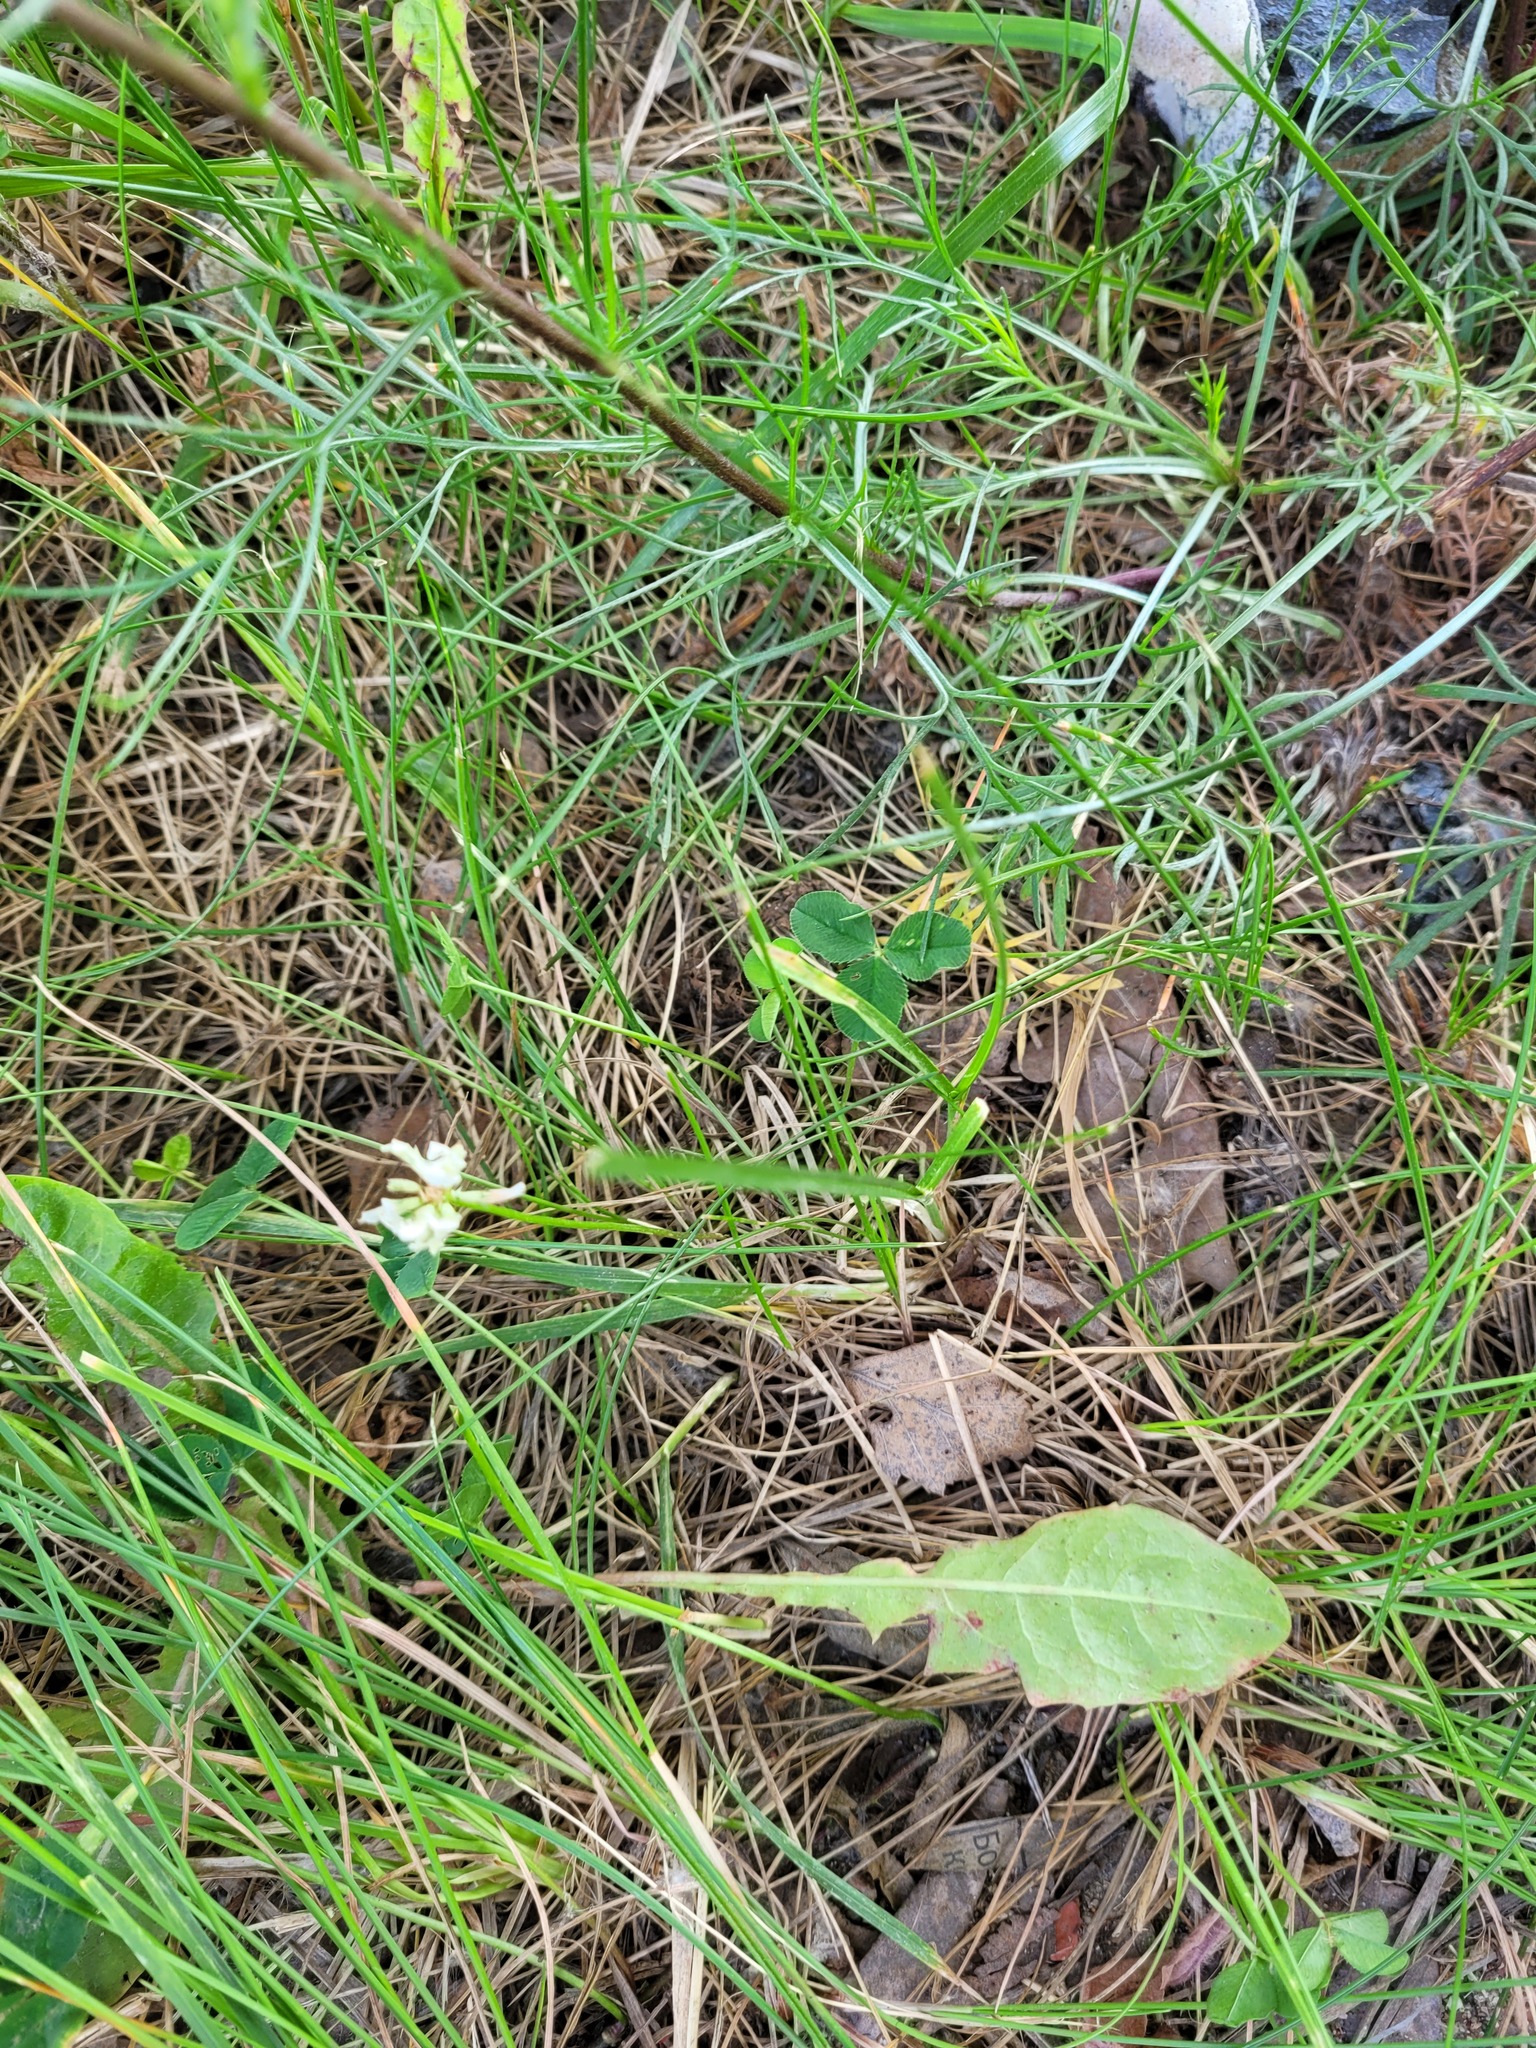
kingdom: Plantae
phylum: Tracheophyta
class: Magnoliopsida
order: Fabales
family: Fabaceae
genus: Trifolium
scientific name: Trifolium repens
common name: White clover
